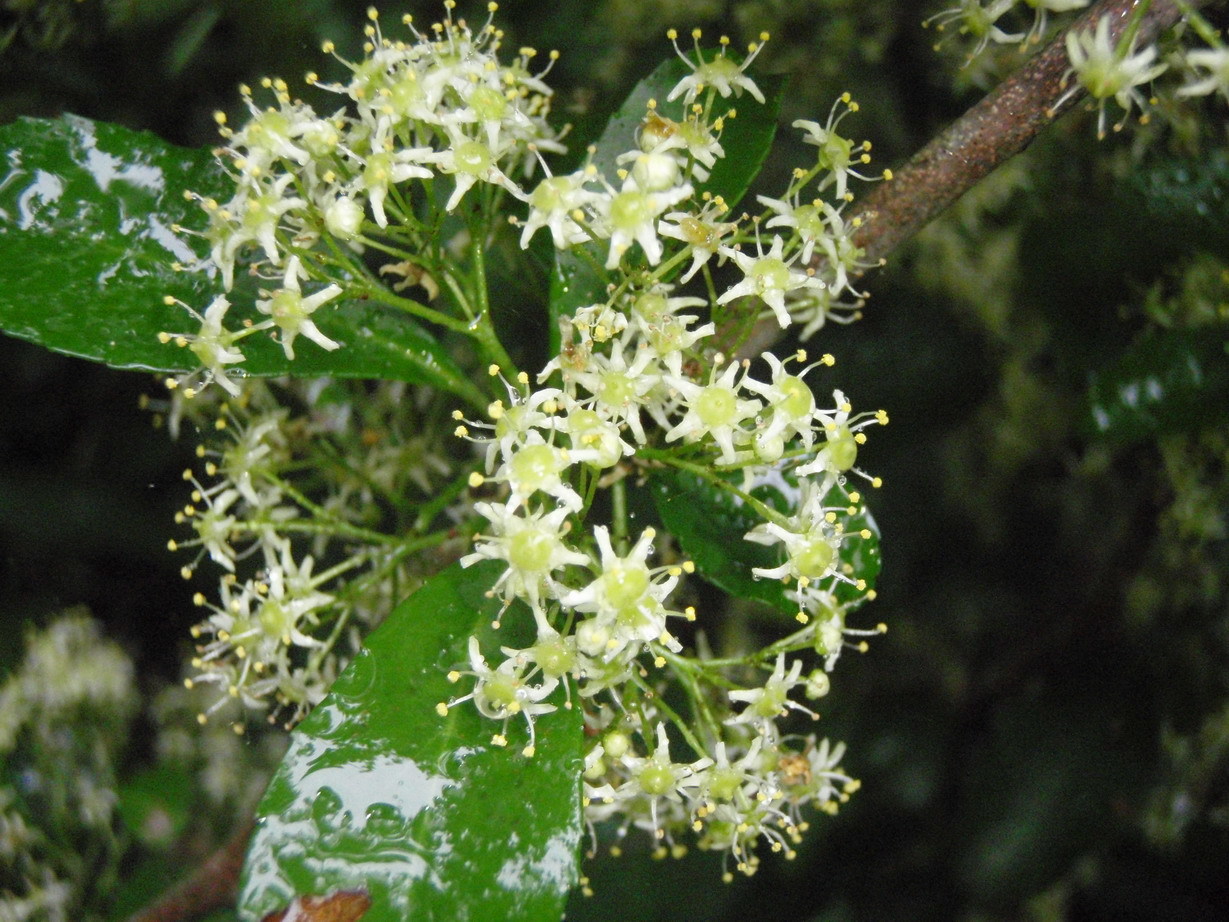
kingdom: Plantae
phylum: Tracheophyta
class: Magnoliopsida
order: Celastrales
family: Celastraceae
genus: Gymnosporia
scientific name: Gymnosporia nemorosa
